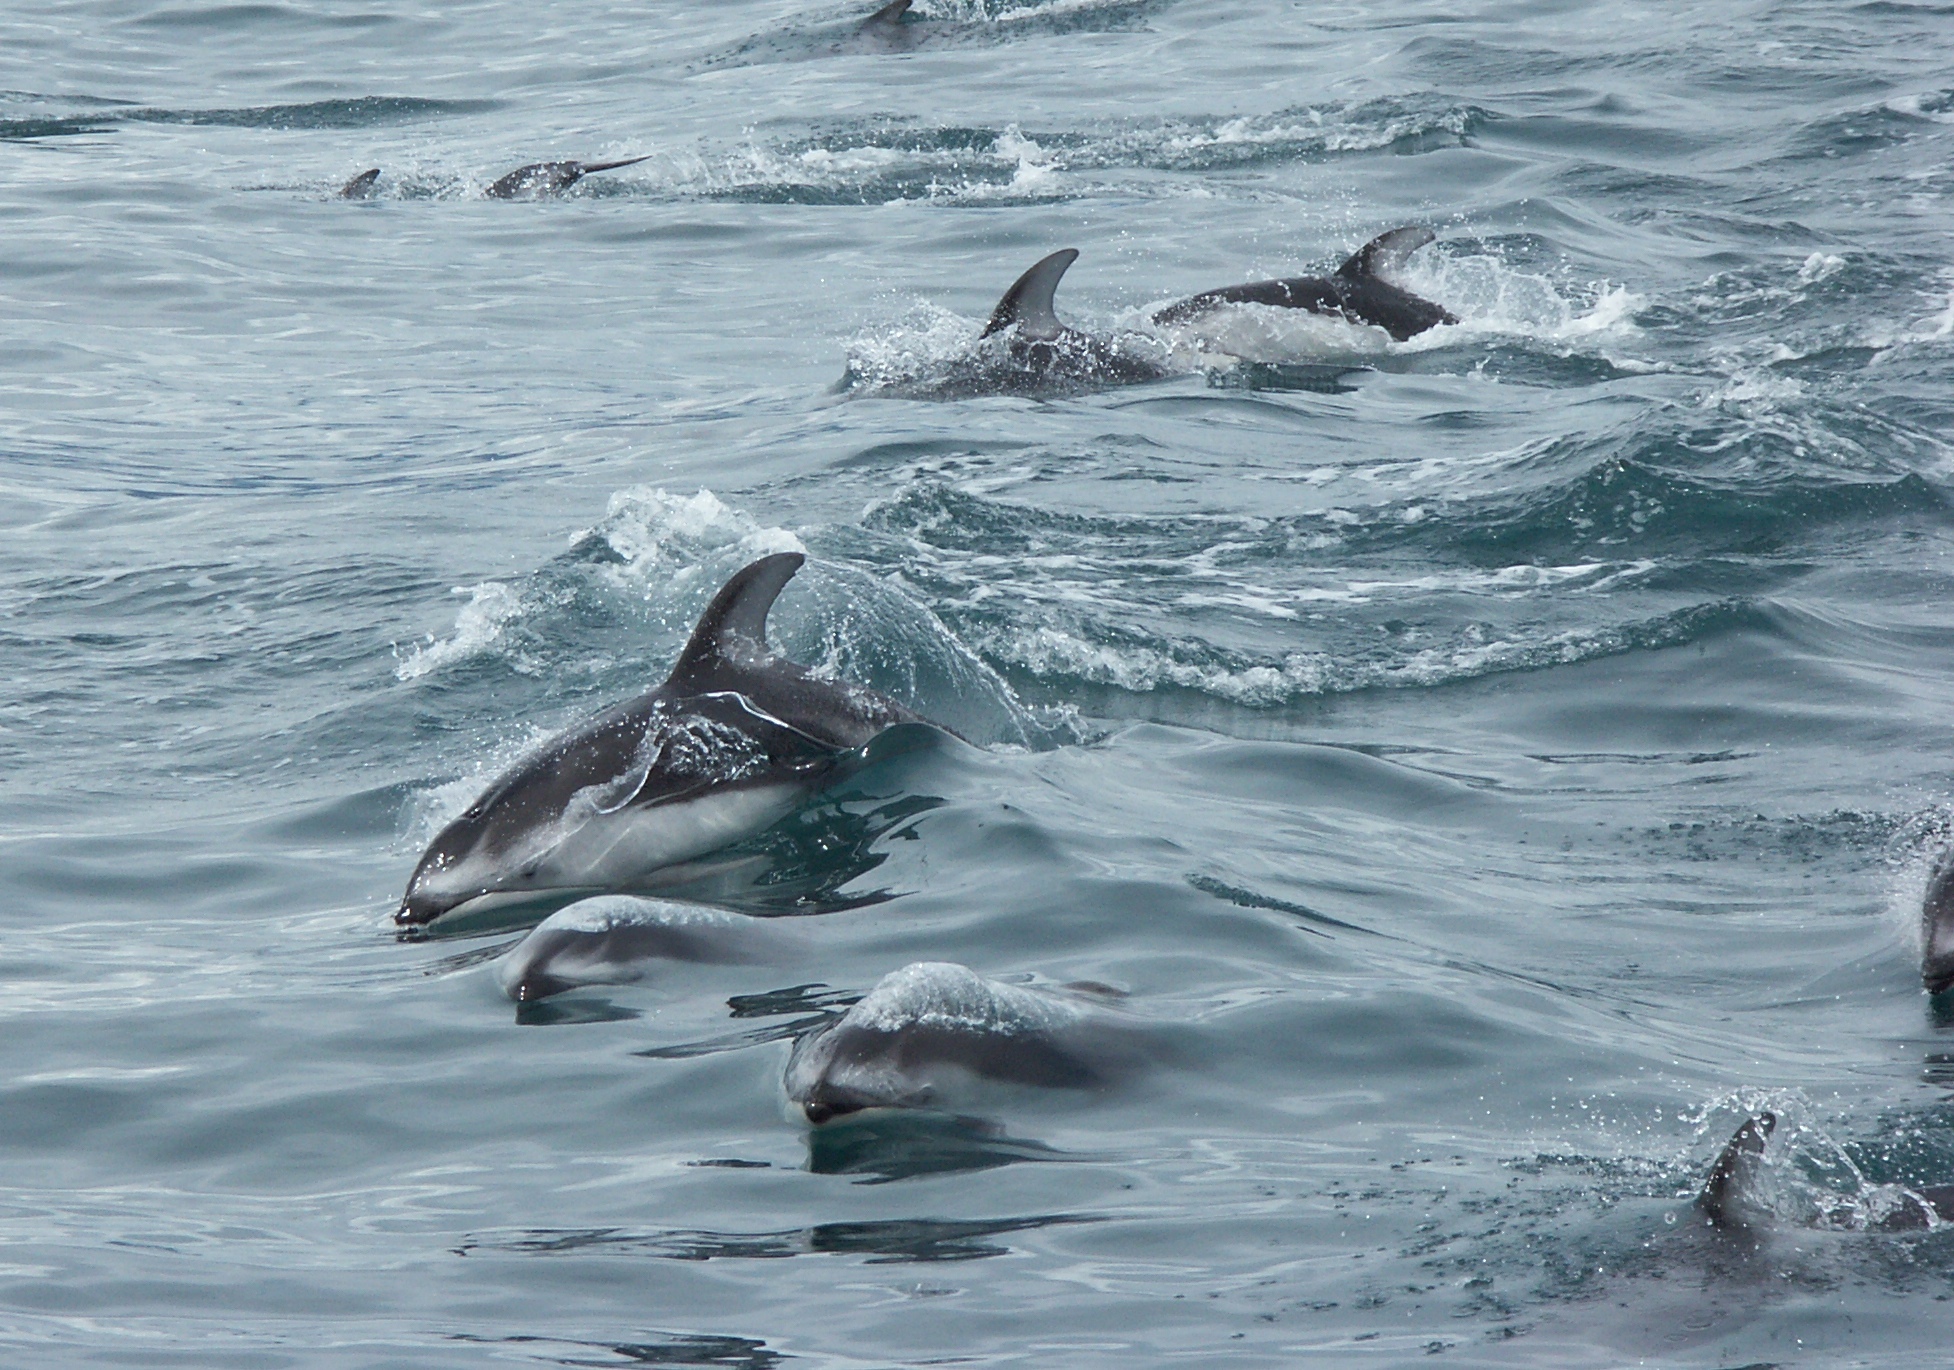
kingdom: Animalia
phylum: Chordata
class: Mammalia
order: Cetacea
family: Delphinidae
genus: Lagenorhynchus
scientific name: Lagenorhynchus obliquidens
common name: Pacific white-sided dolphin
